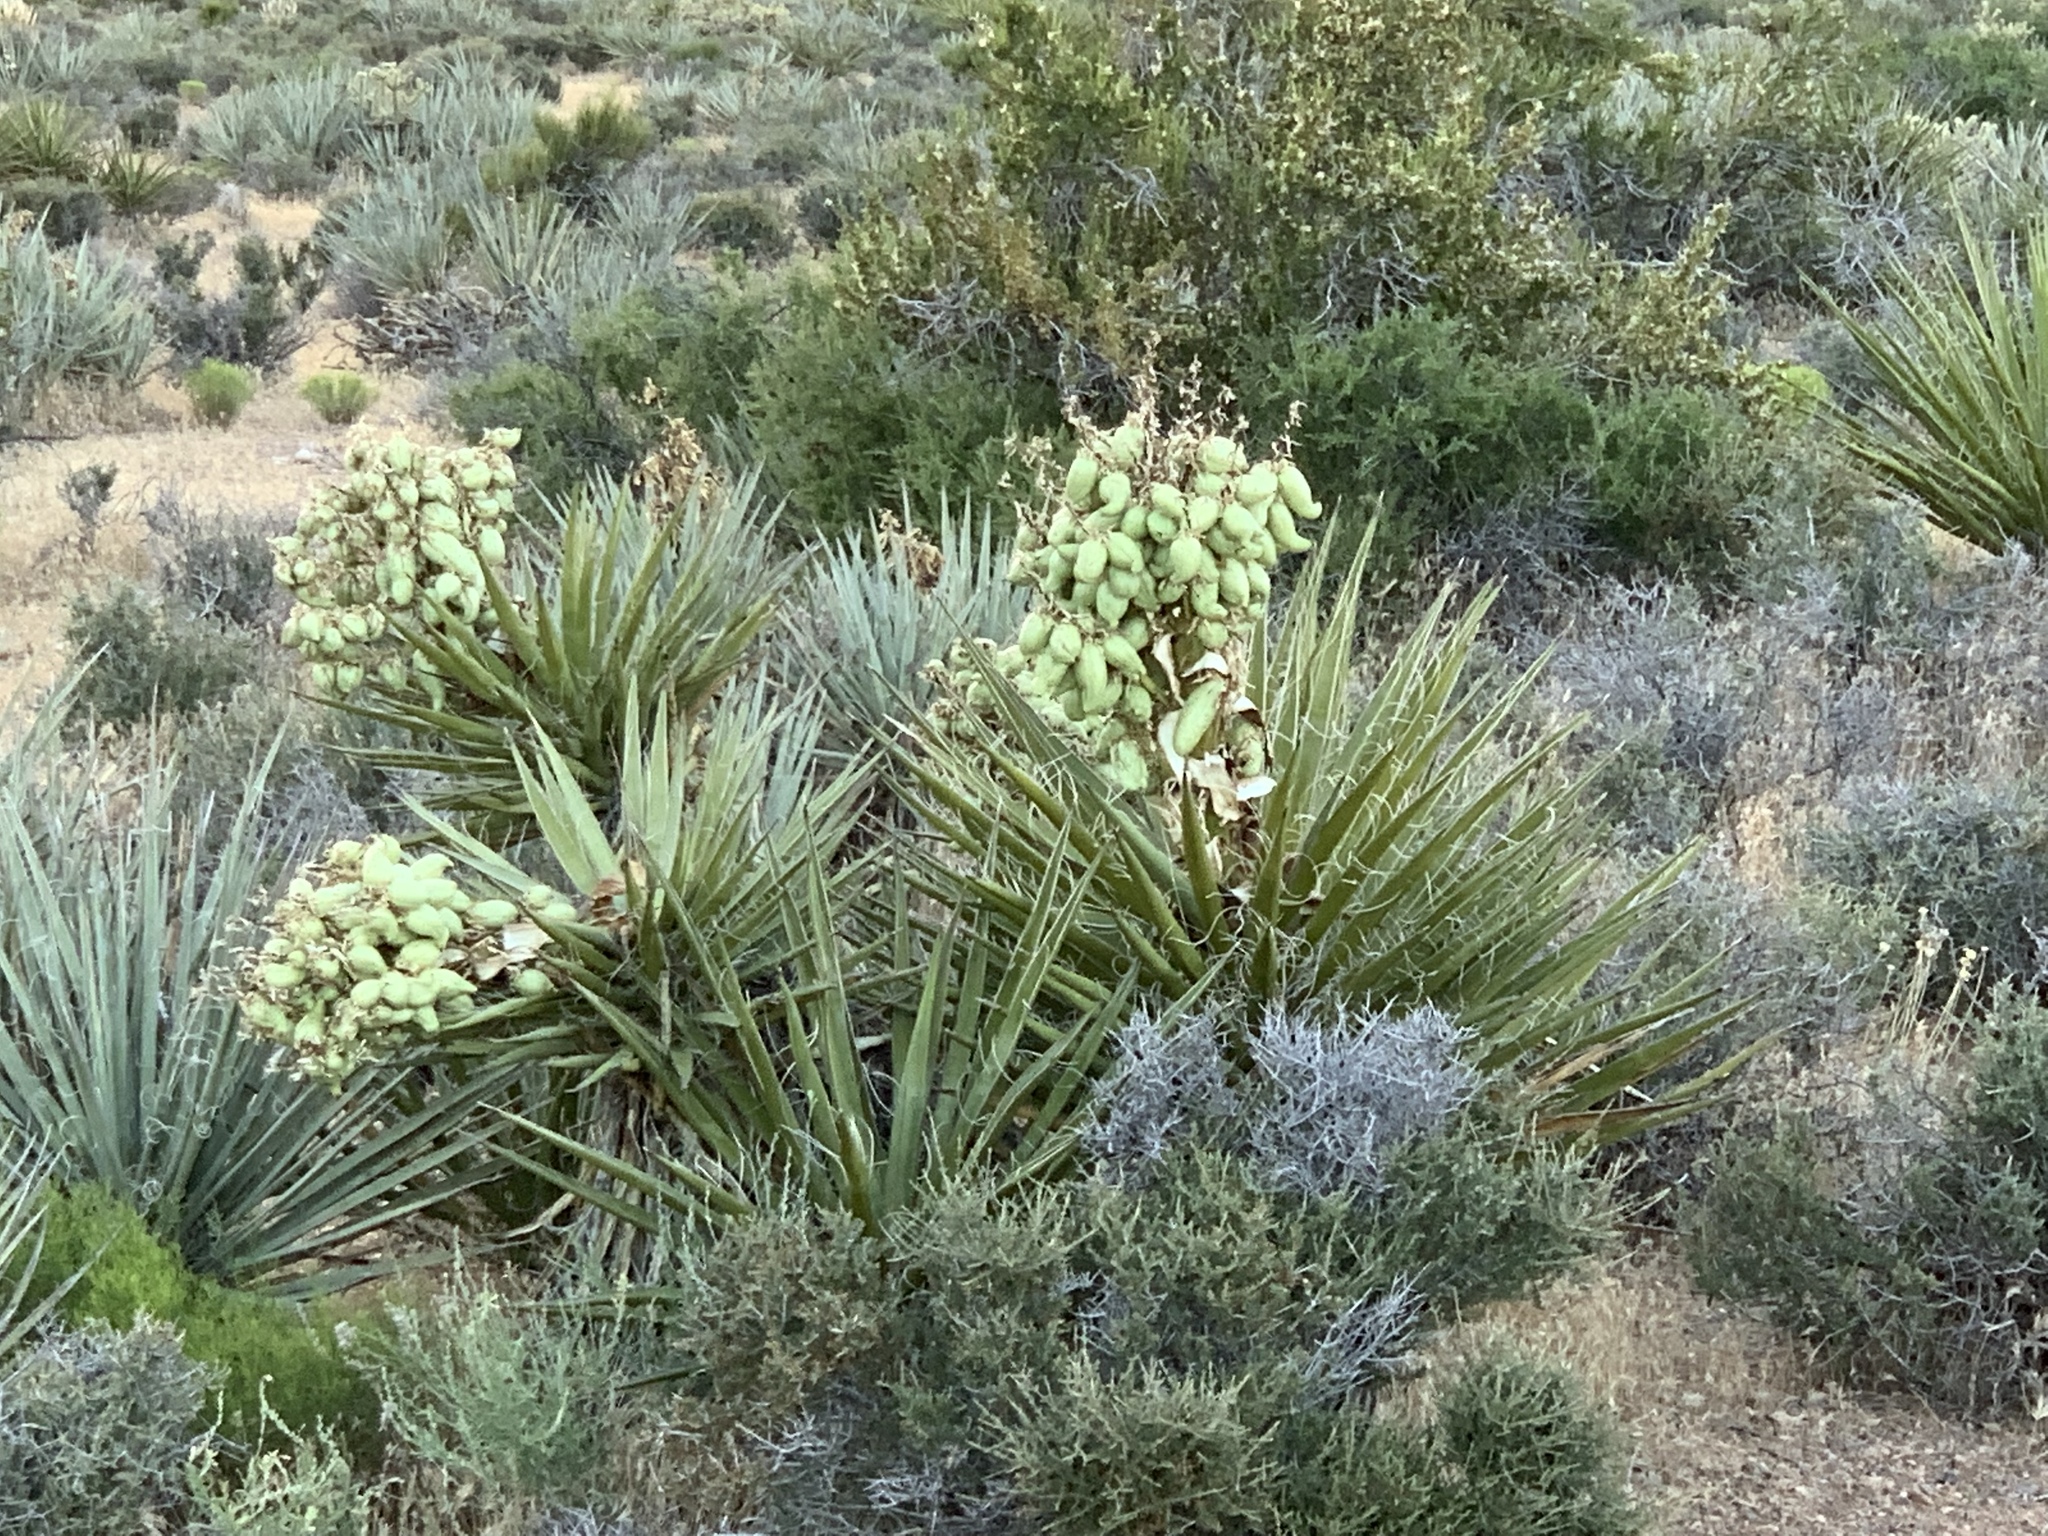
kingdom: Plantae
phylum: Tracheophyta
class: Liliopsida
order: Asparagales
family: Asparagaceae
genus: Yucca
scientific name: Yucca schidigera
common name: Mojave yucca
